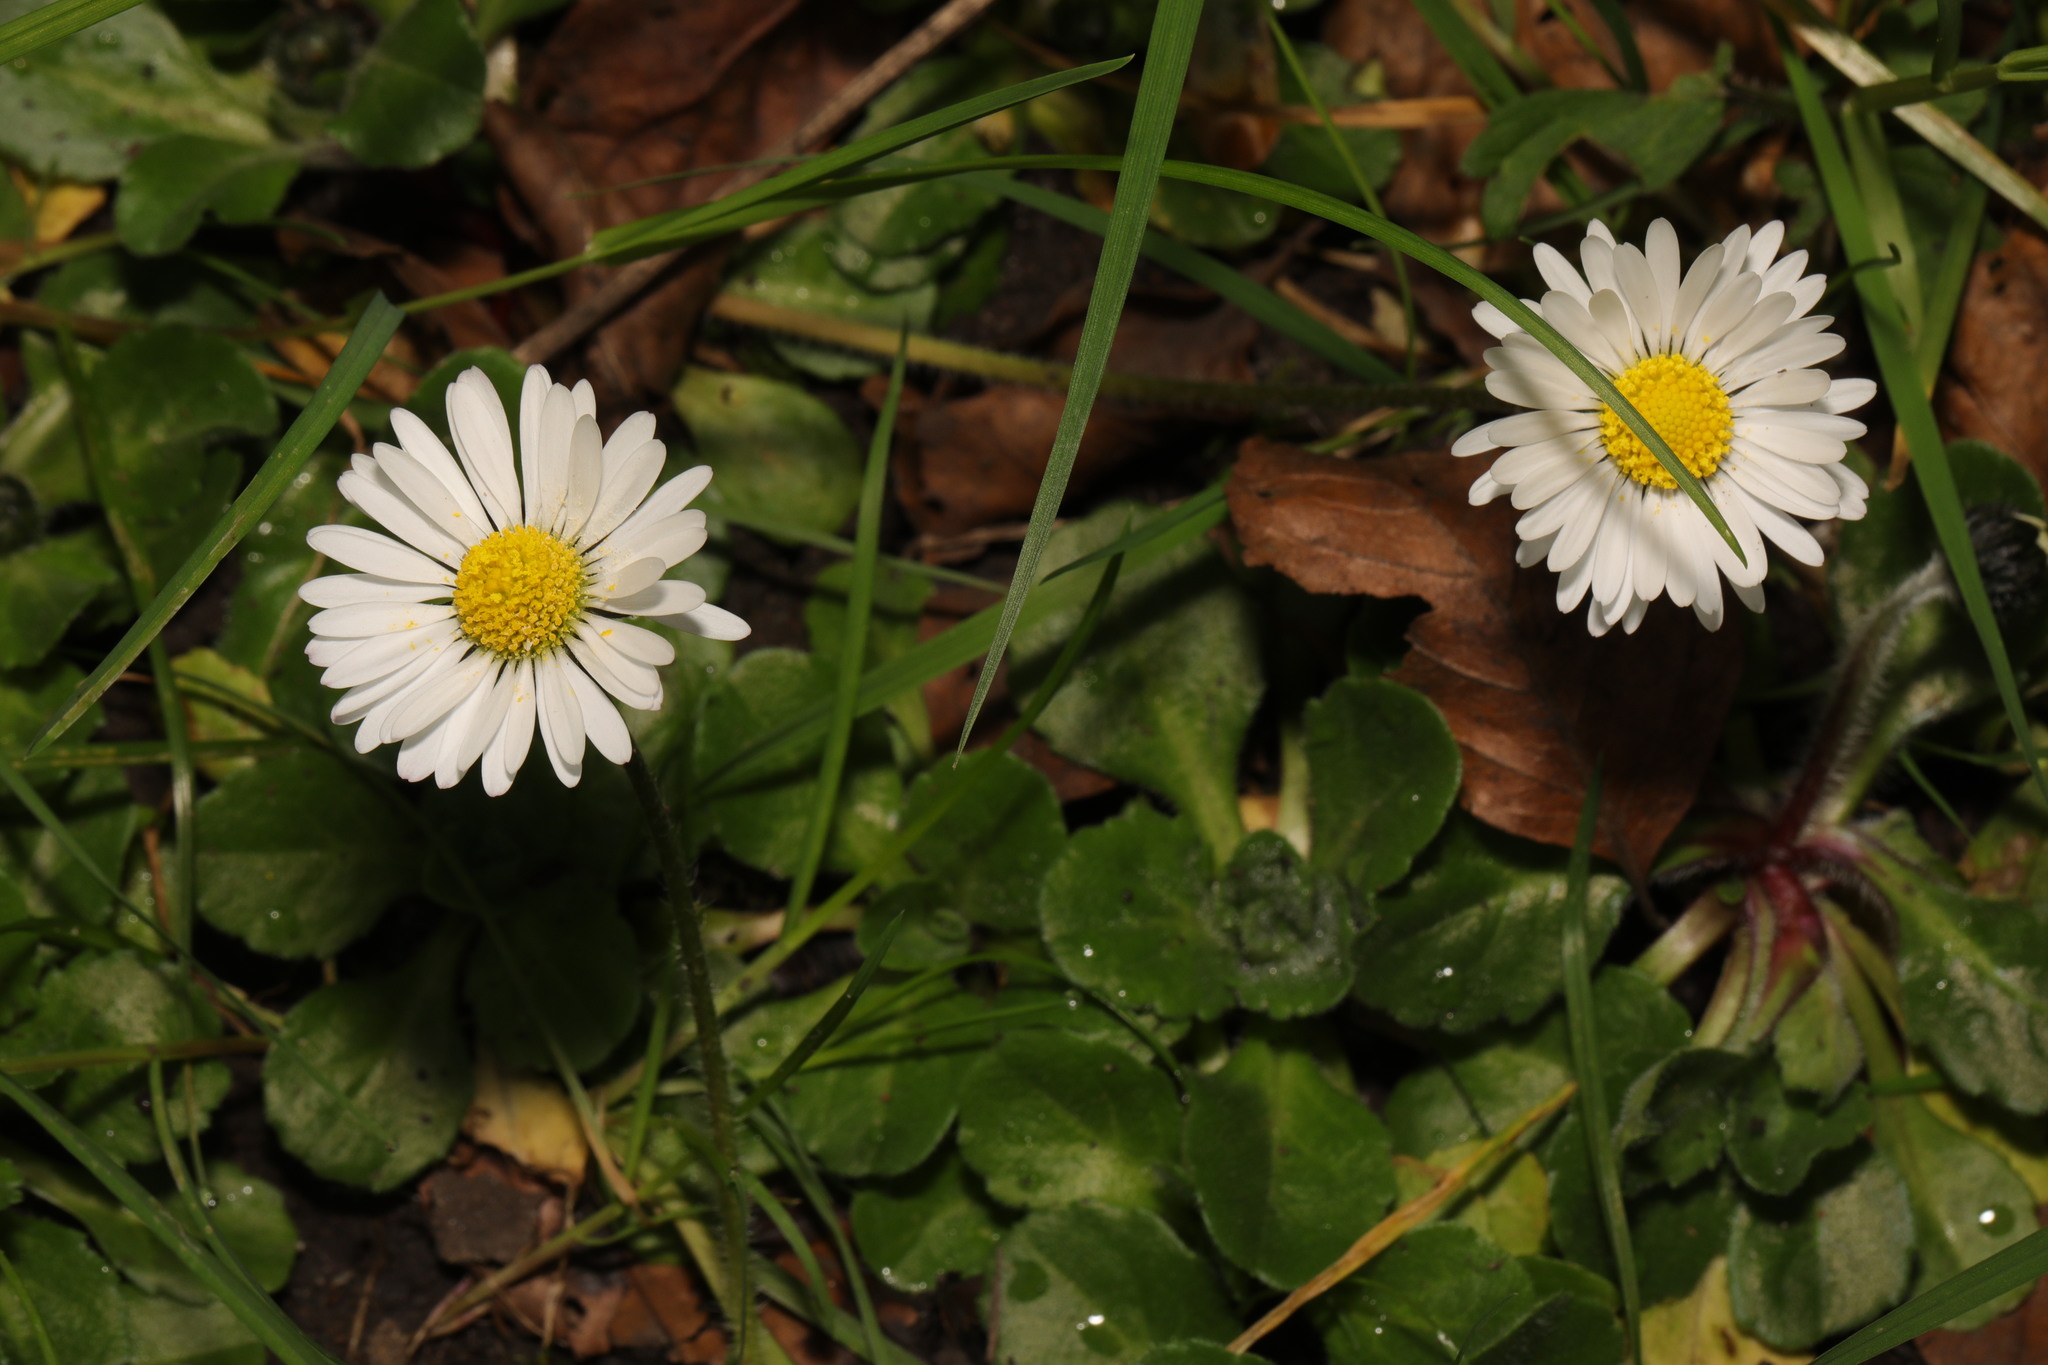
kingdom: Plantae
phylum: Tracheophyta
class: Magnoliopsida
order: Asterales
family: Asteraceae
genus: Bellis
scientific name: Bellis perennis
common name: Lawndaisy
